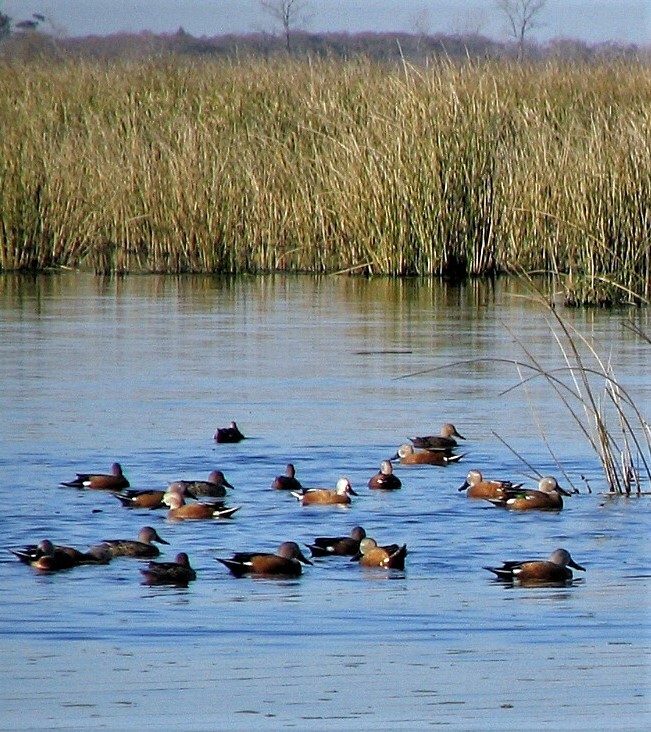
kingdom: Animalia
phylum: Chordata
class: Aves
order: Anseriformes
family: Anatidae
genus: Spatula
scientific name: Spatula platalea
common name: Red shoveler
